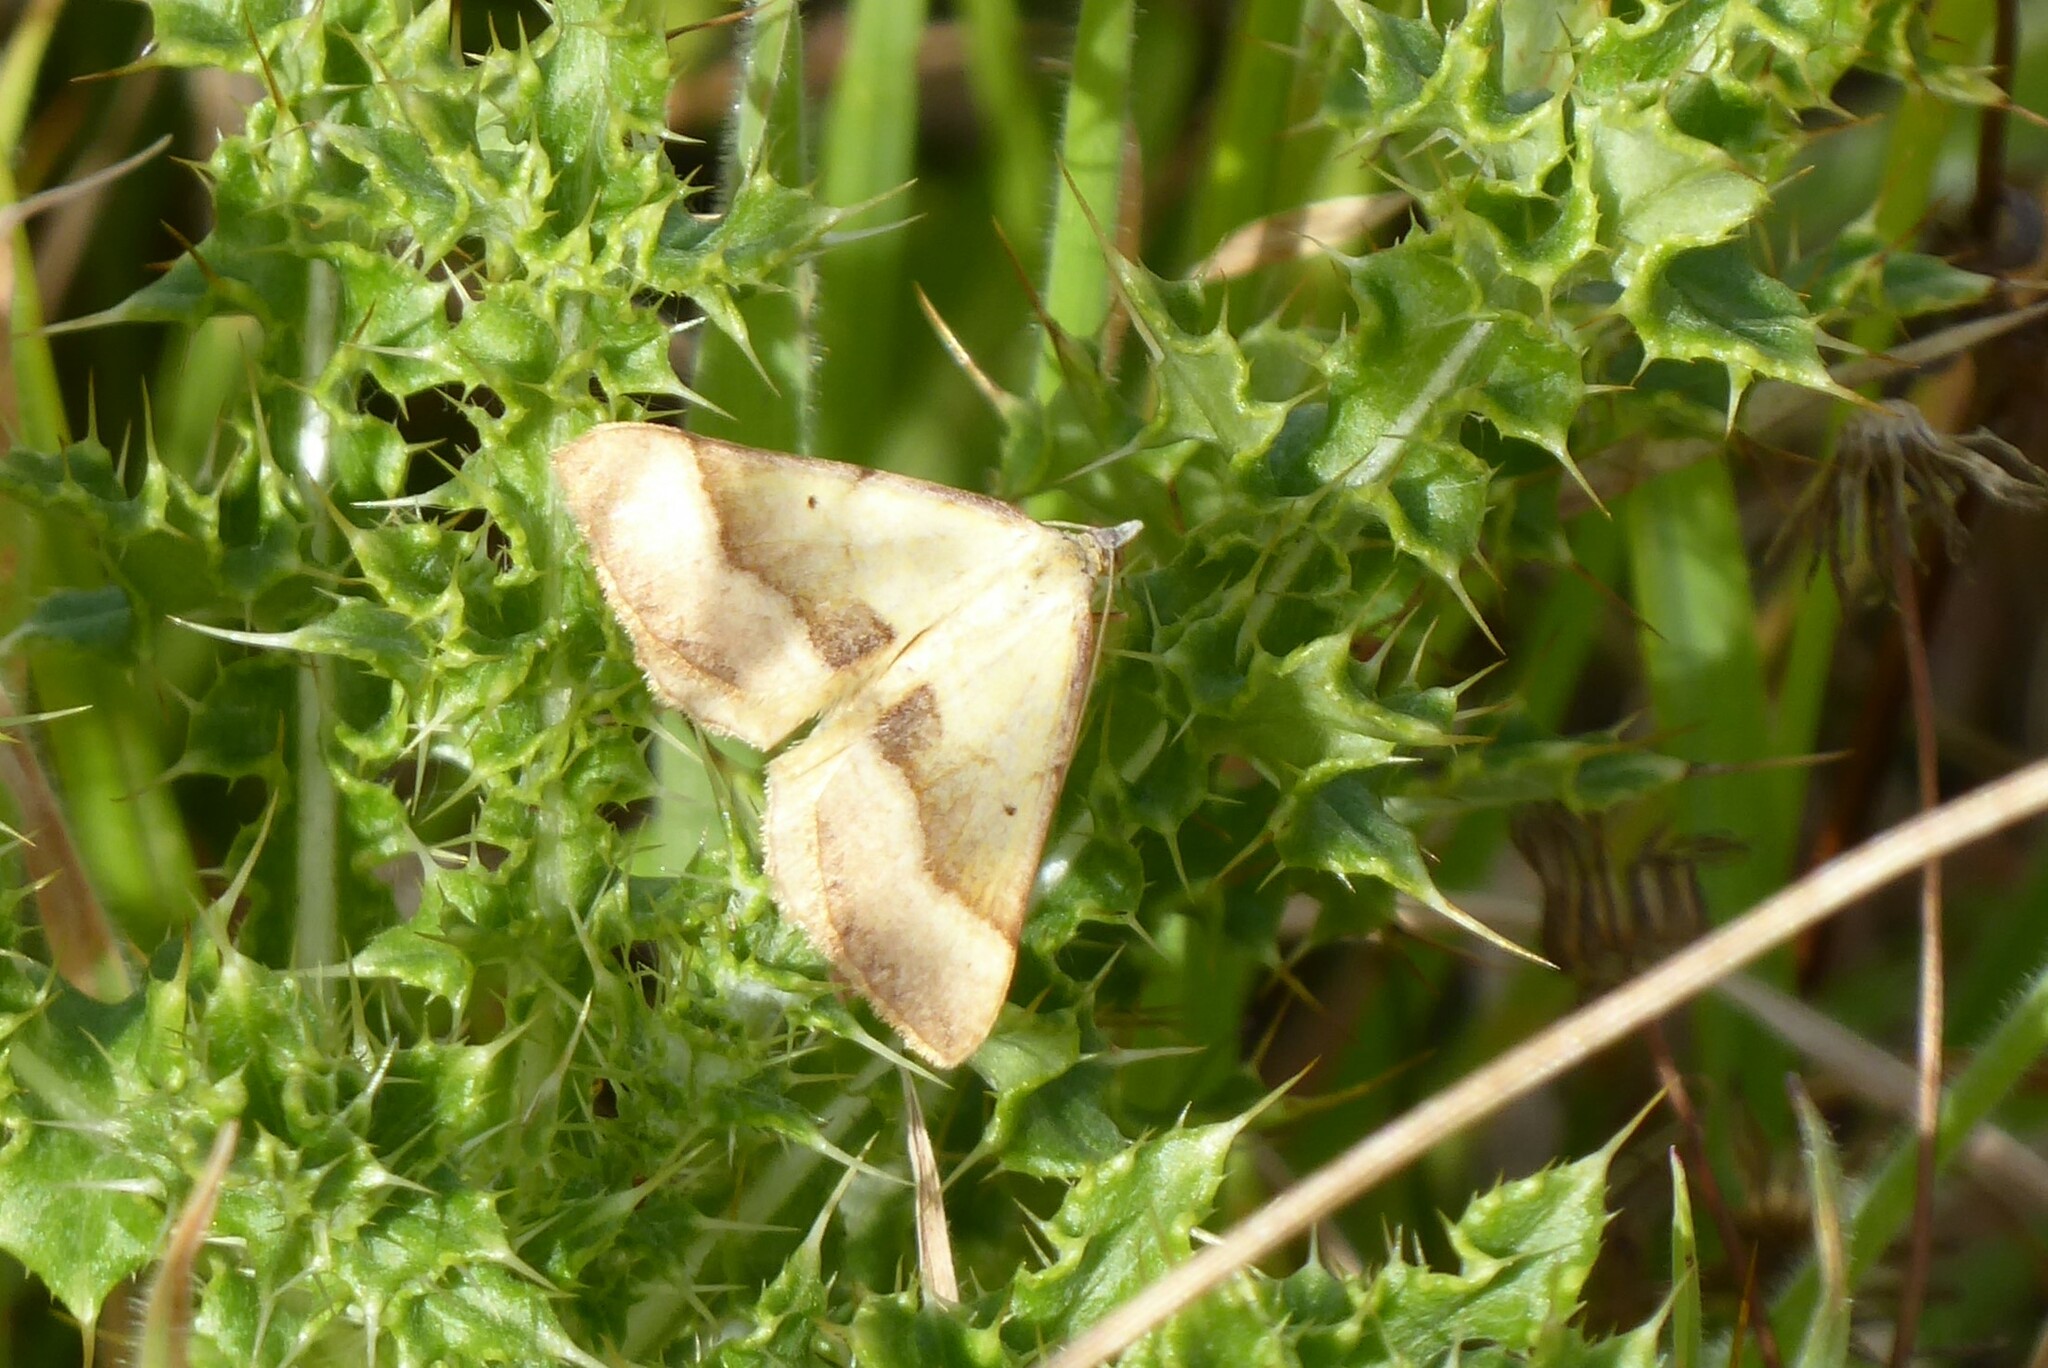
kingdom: Animalia
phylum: Arthropoda
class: Insecta
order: Lepidoptera
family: Geometridae
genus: Anachloris
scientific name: Anachloris subochraria
